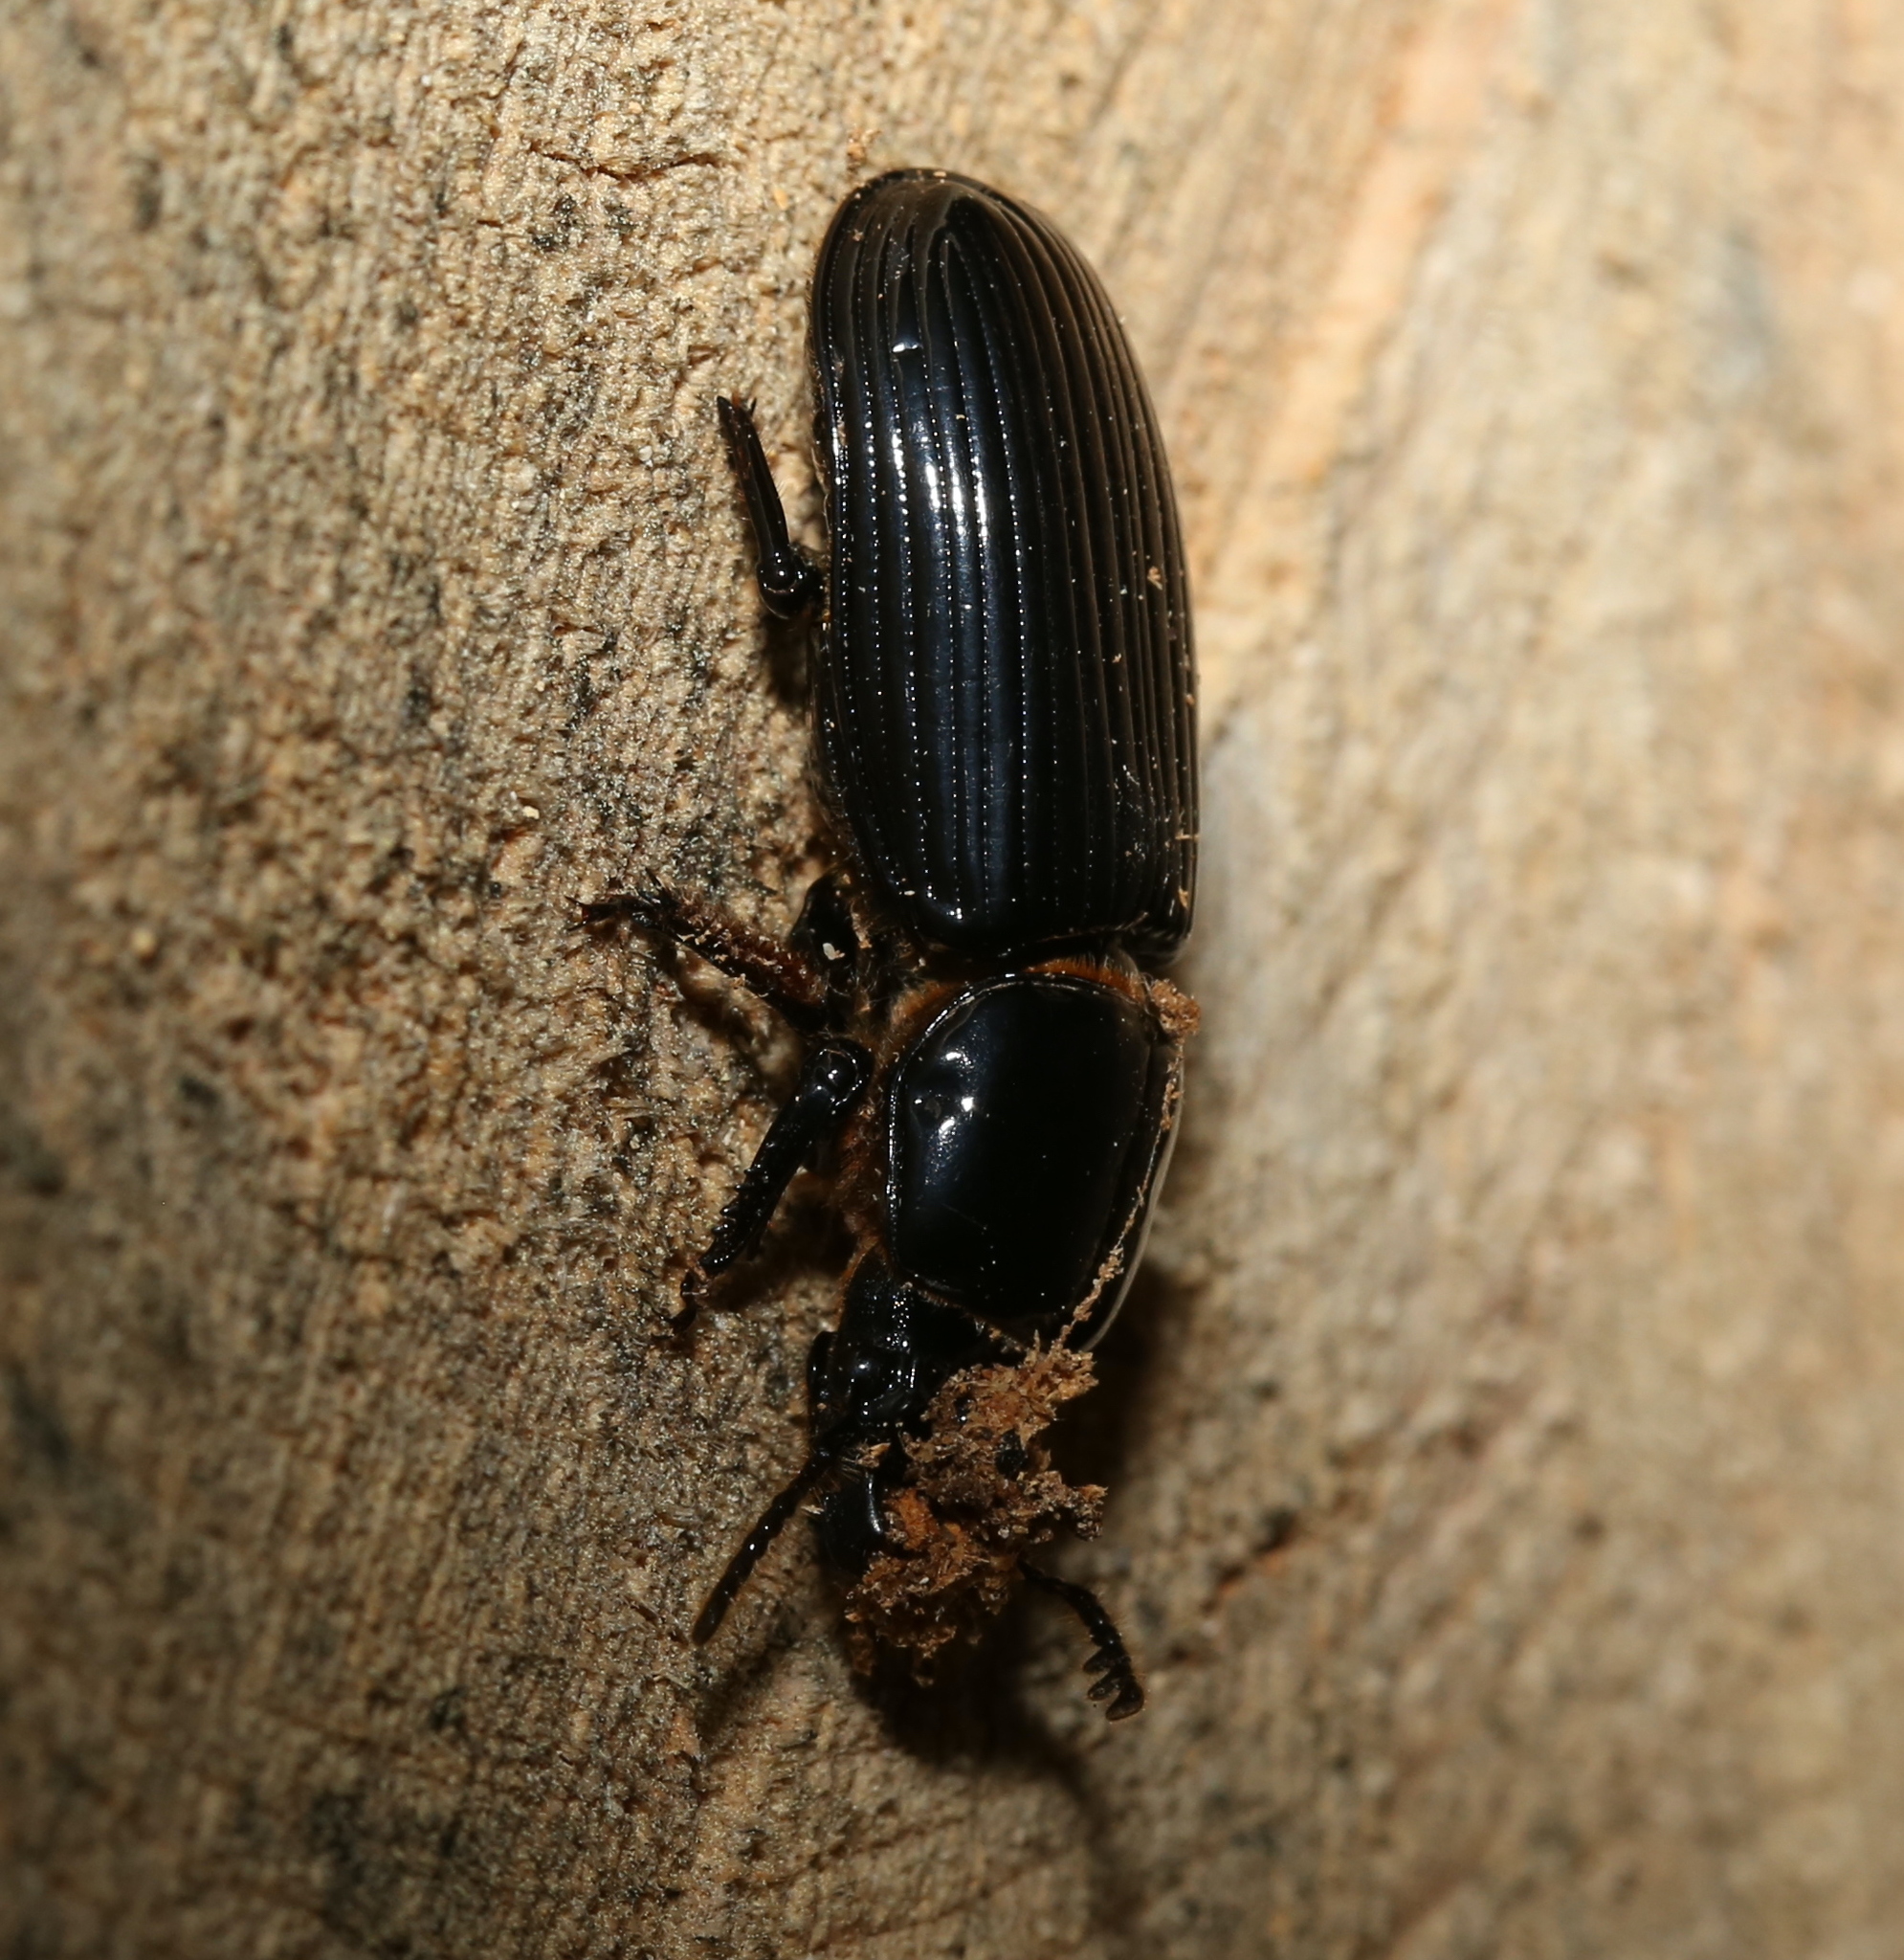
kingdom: Animalia
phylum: Arthropoda
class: Insecta
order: Coleoptera
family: Passalidae
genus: Odontotaenius
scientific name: Odontotaenius disjunctus
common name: Patent leather beetle
